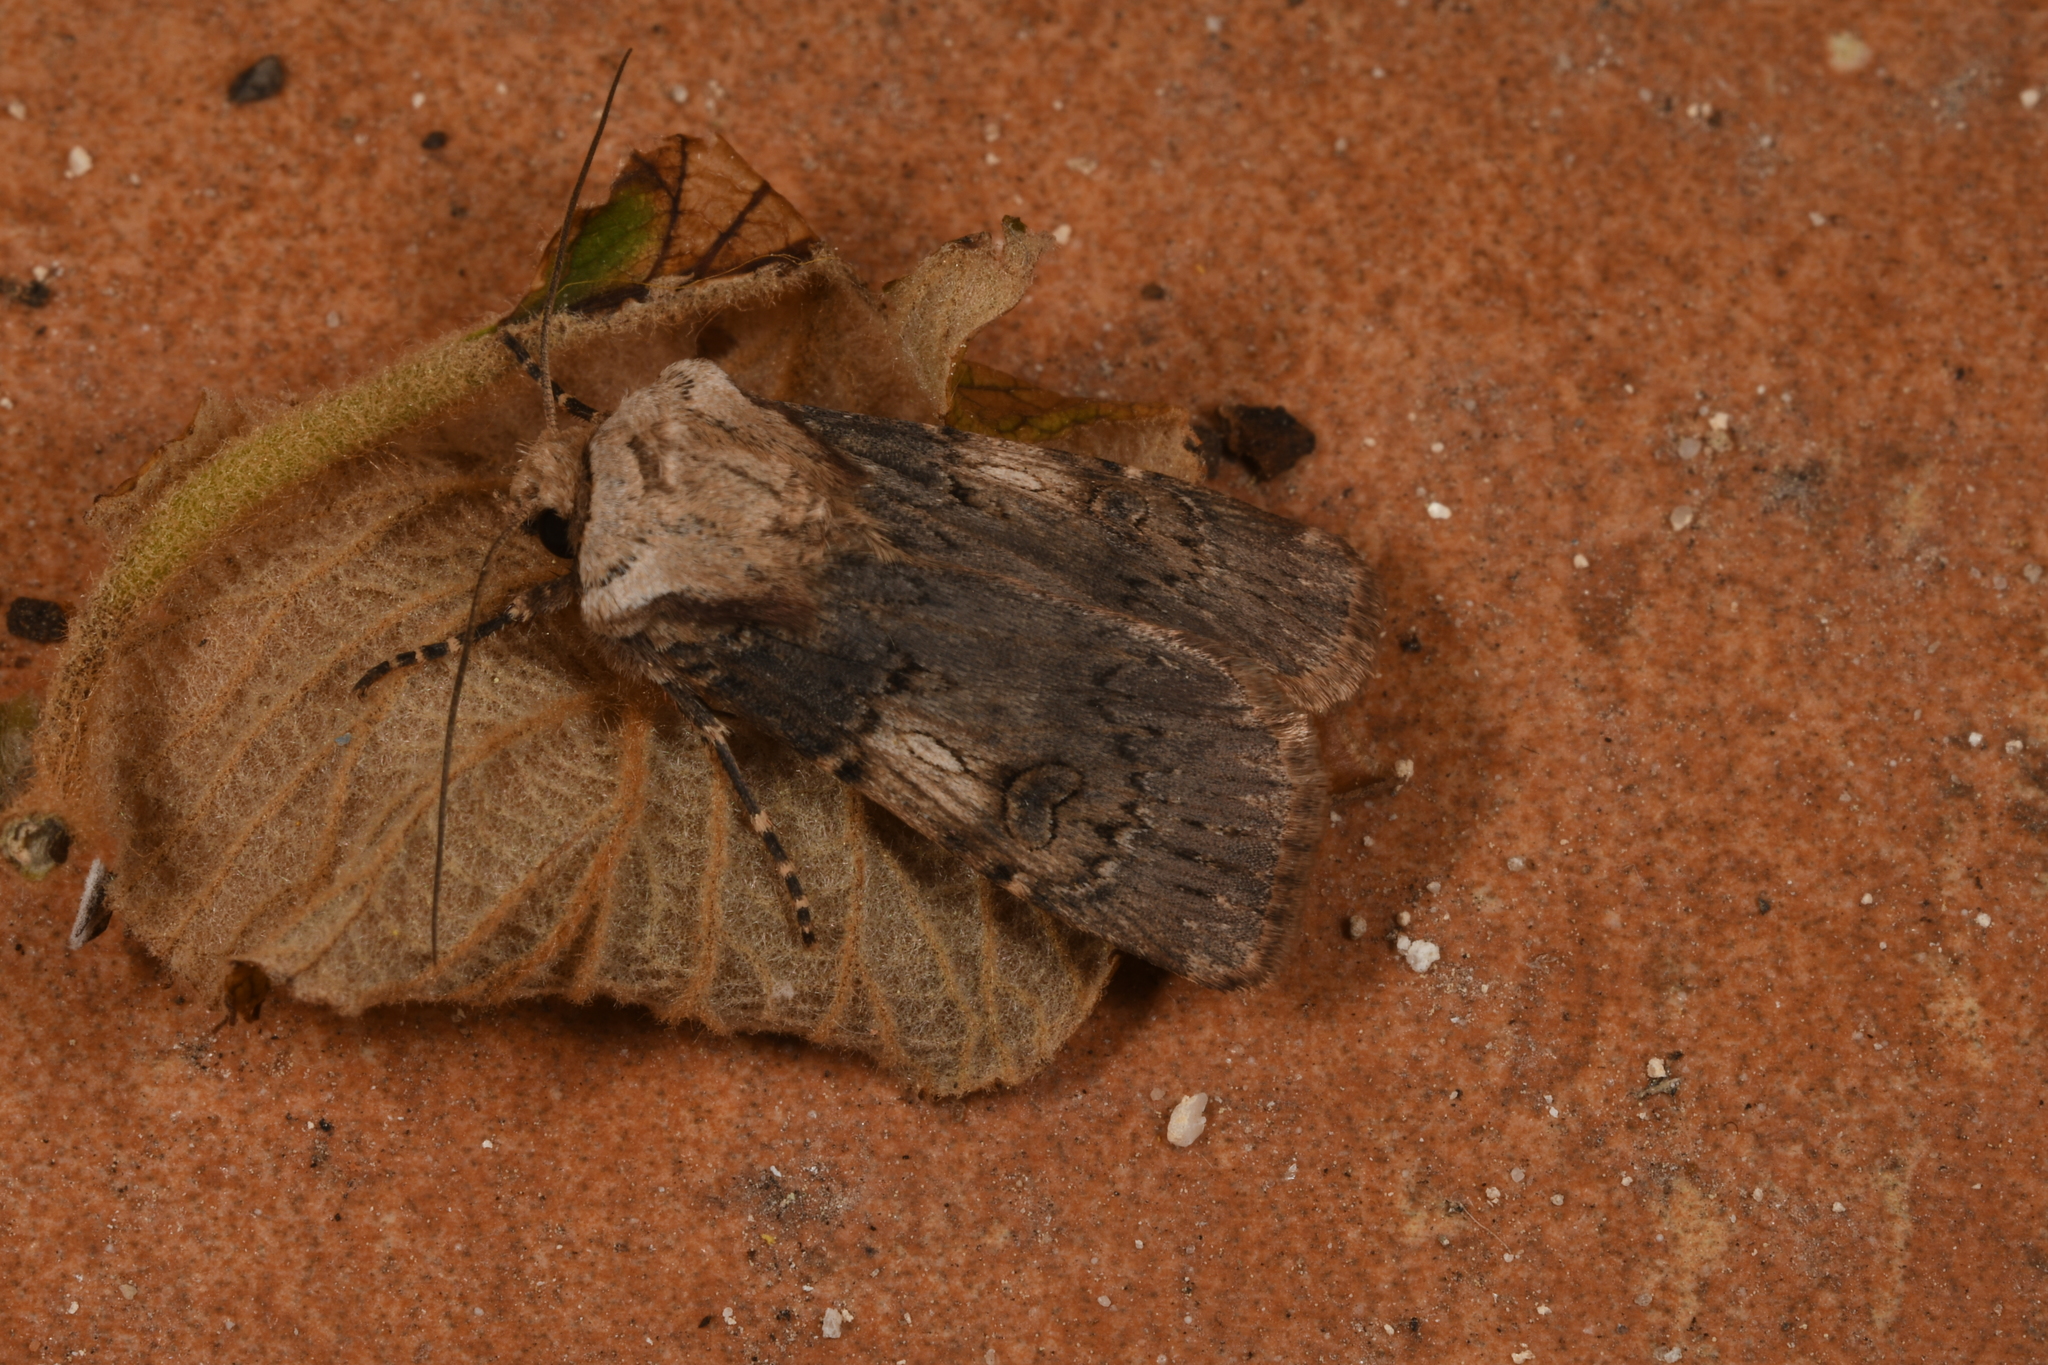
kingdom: Animalia
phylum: Arthropoda
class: Insecta
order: Lepidoptera
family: Noctuidae
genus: Agrotis
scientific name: Agrotis puta
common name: Shuttle-shaped dart
